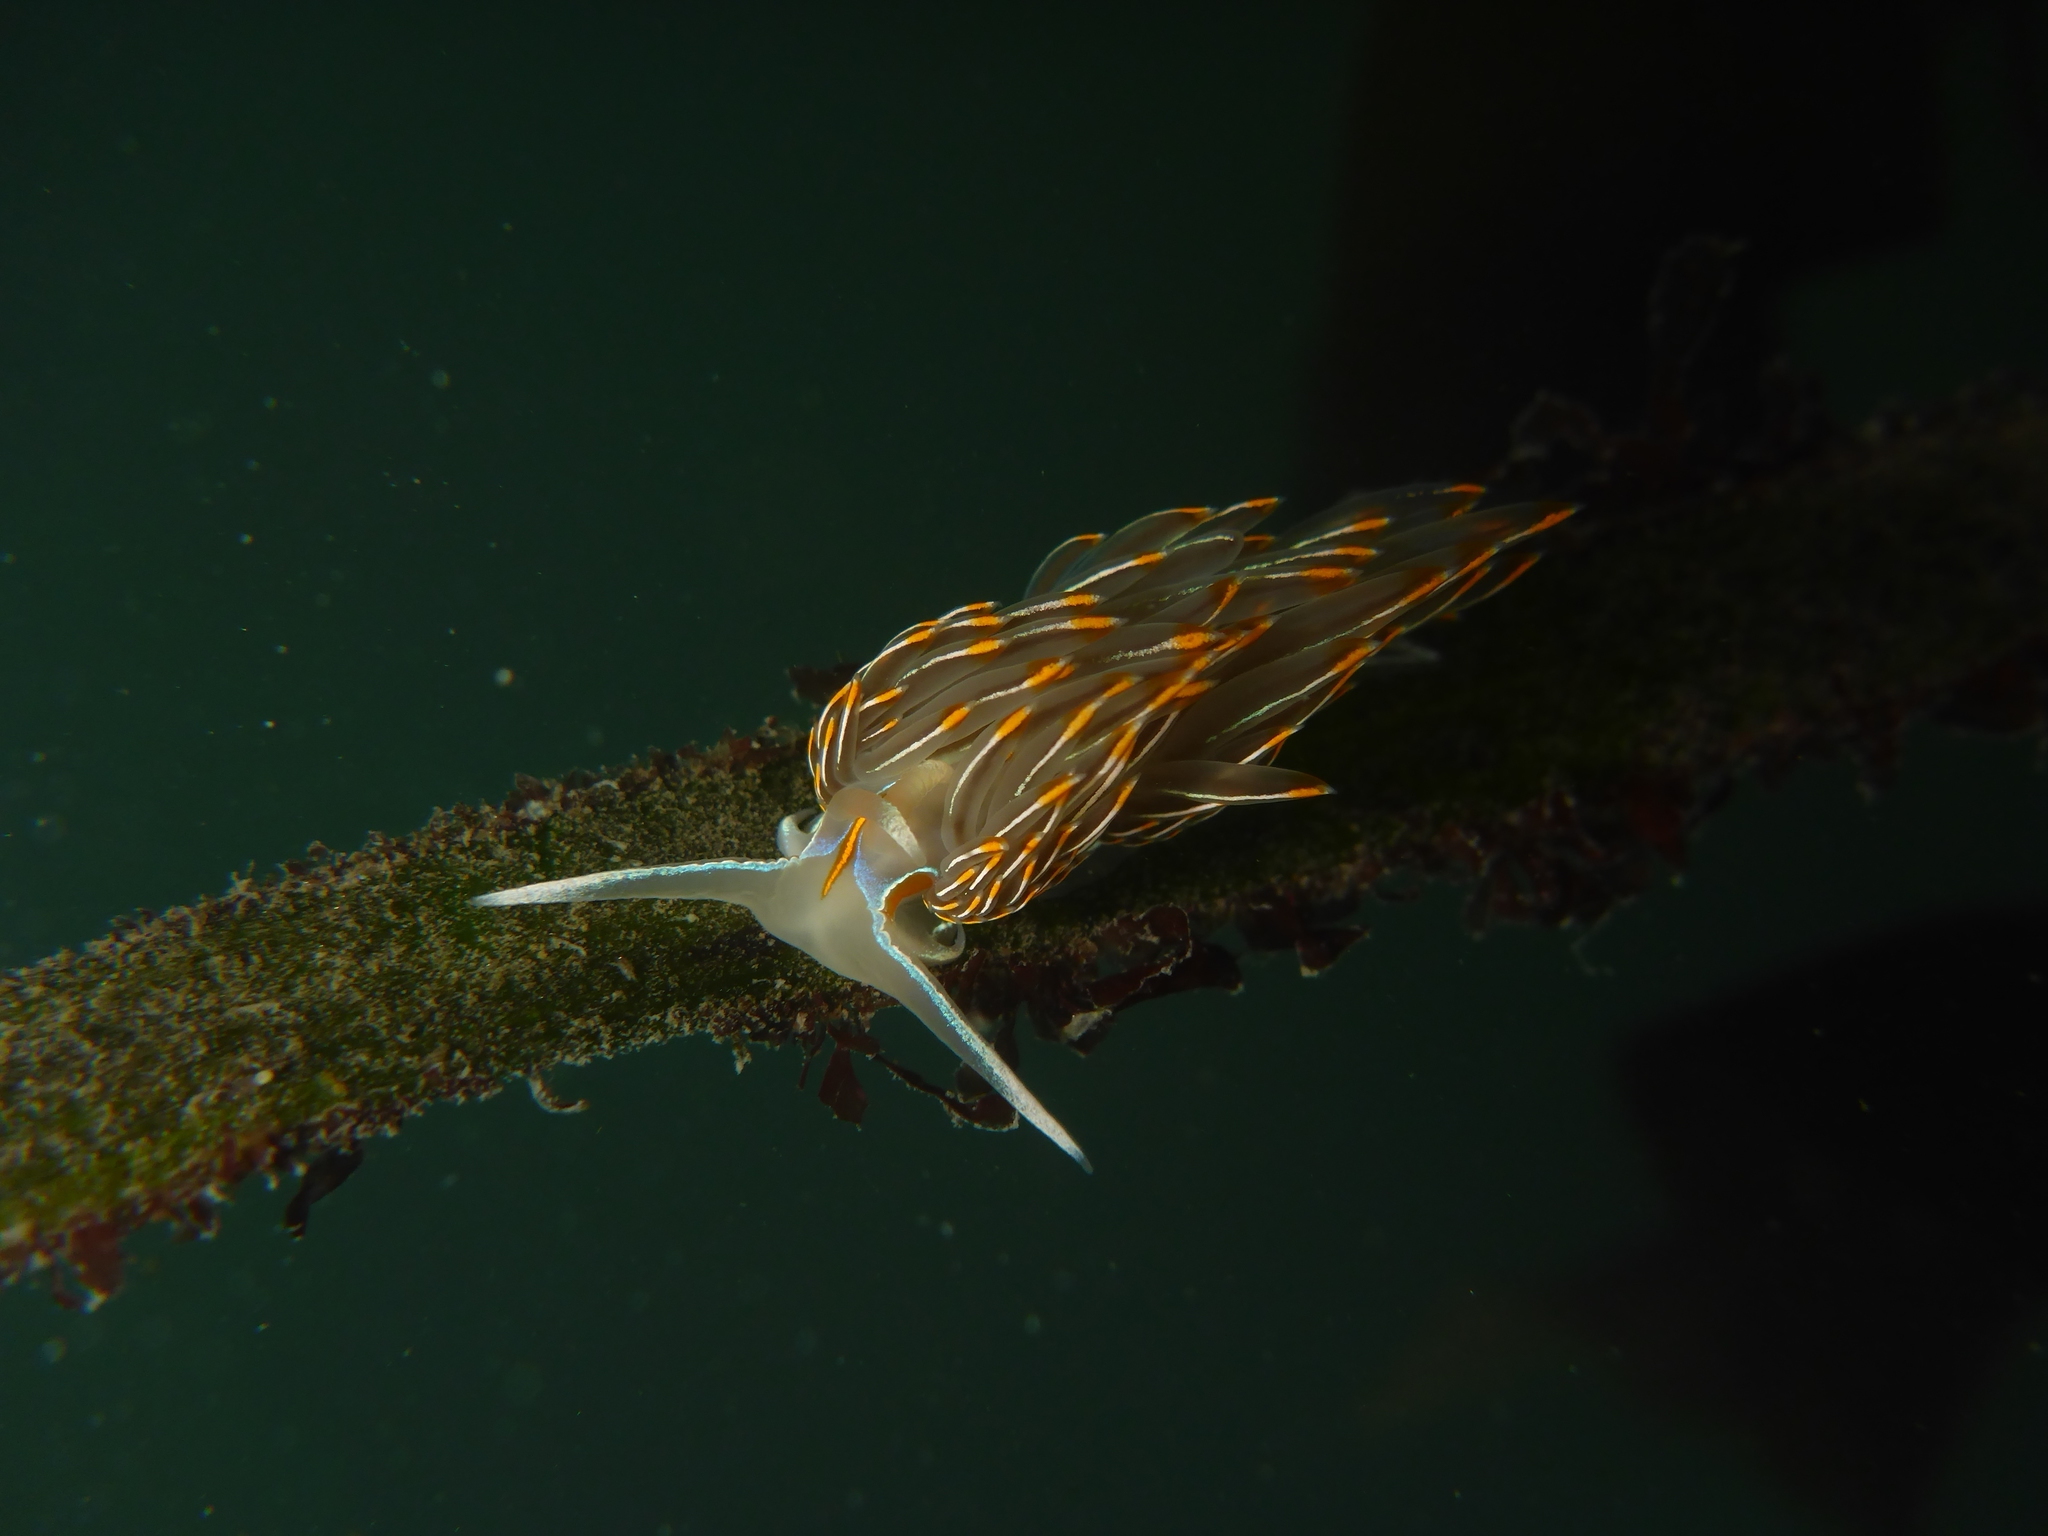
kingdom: Animalia
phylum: Mollusca
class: Gastropoda
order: Nudibranchia
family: Myrrhinidae
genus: Hermissenda
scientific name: Hermissenda crassicornis
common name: Hermissenda
